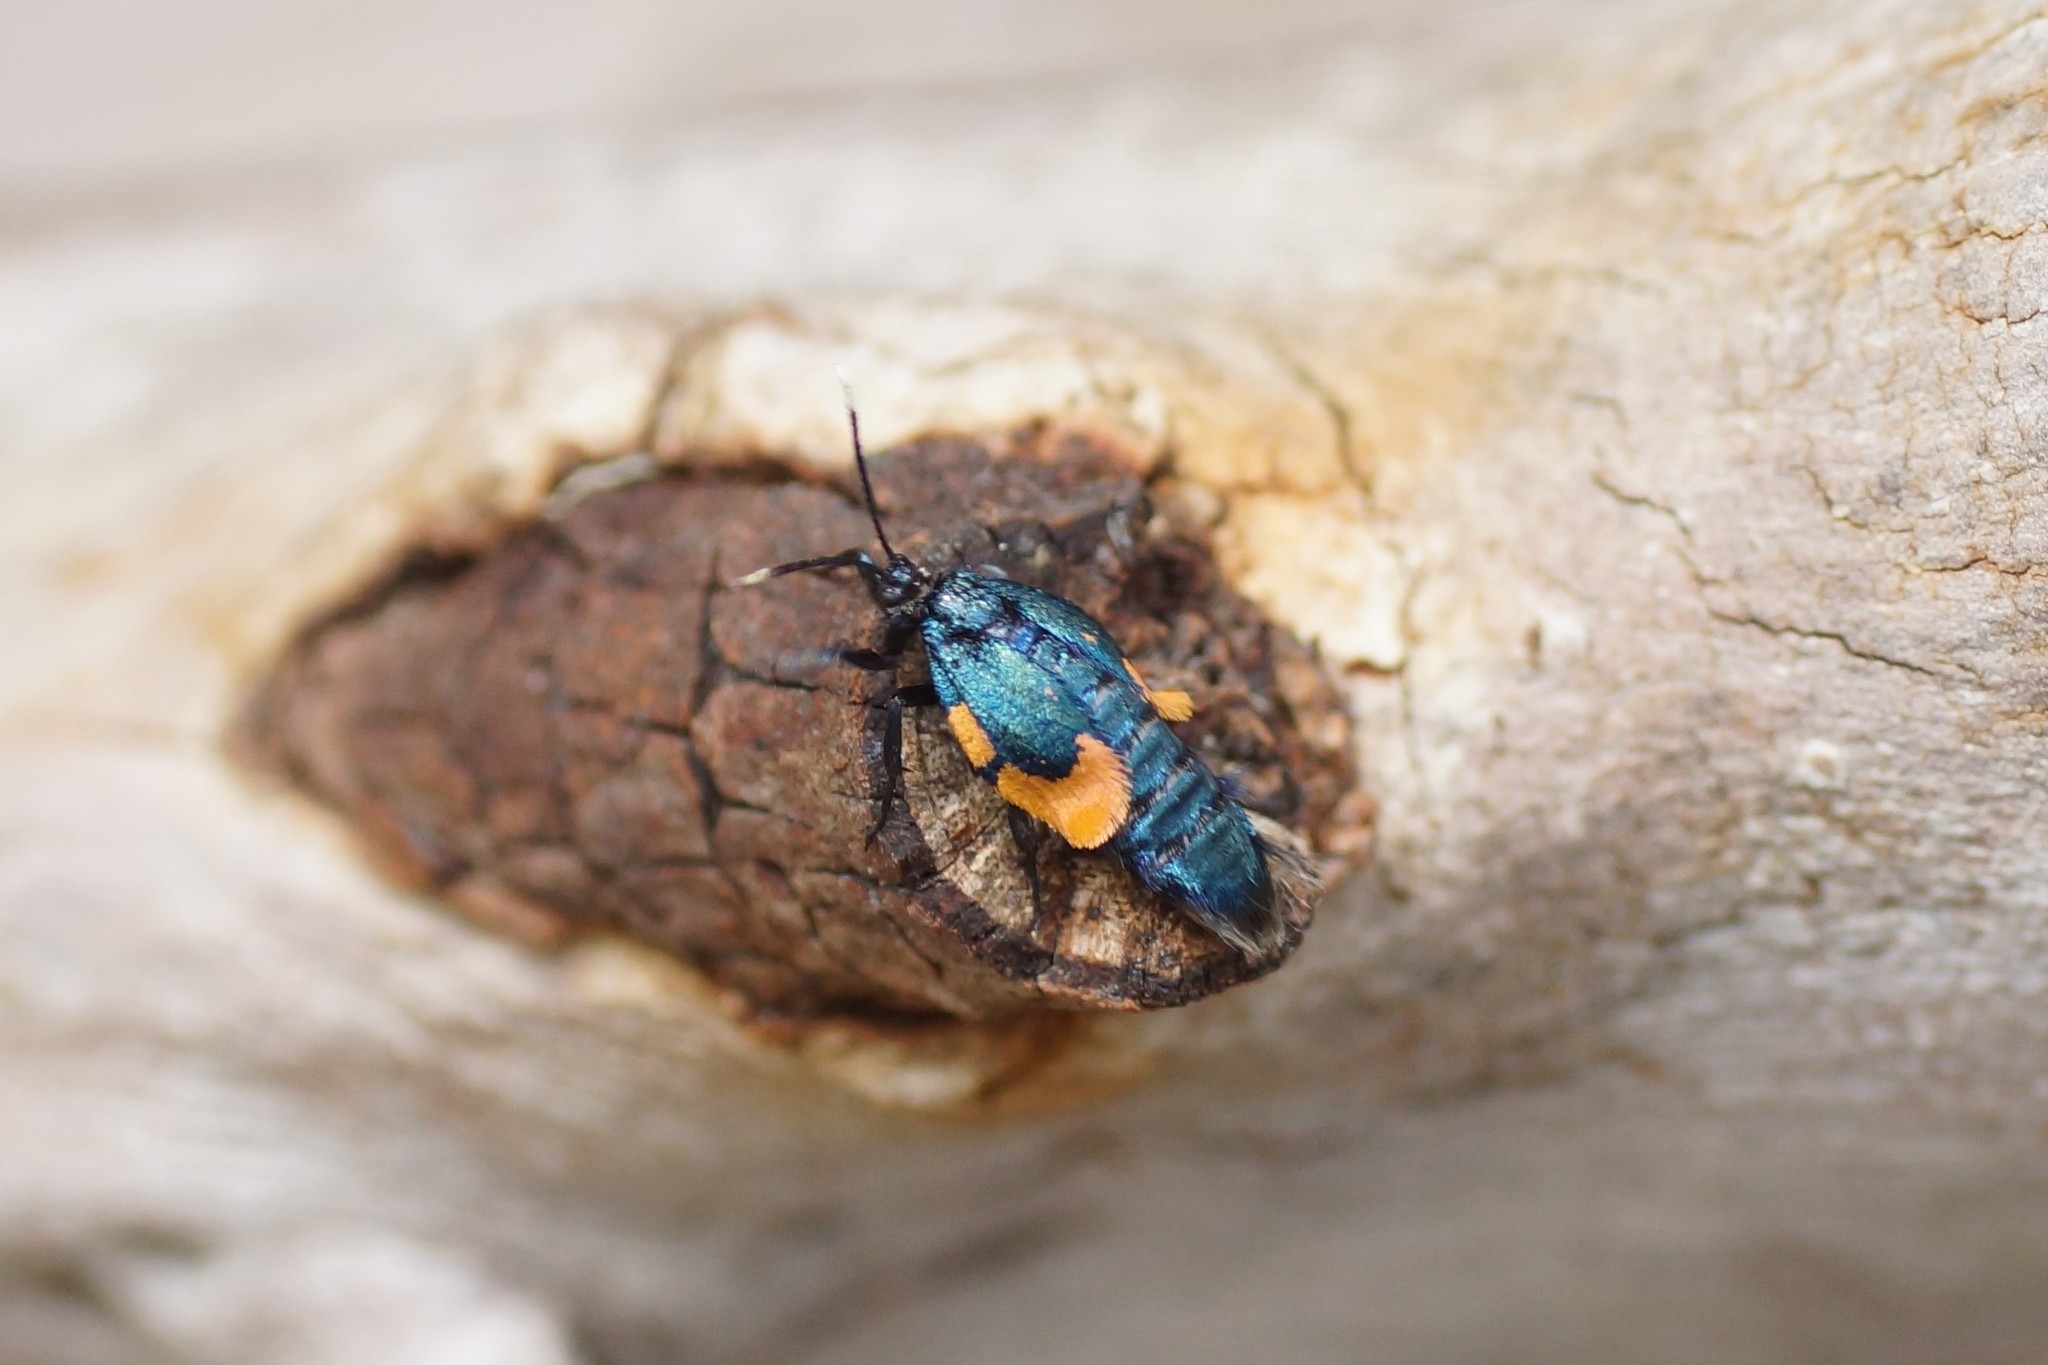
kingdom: Animalia
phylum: Arthropoda
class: Insecta
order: Lepidoptera
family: Psychidae
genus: Cebysa
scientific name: Cebysa leucotelus
